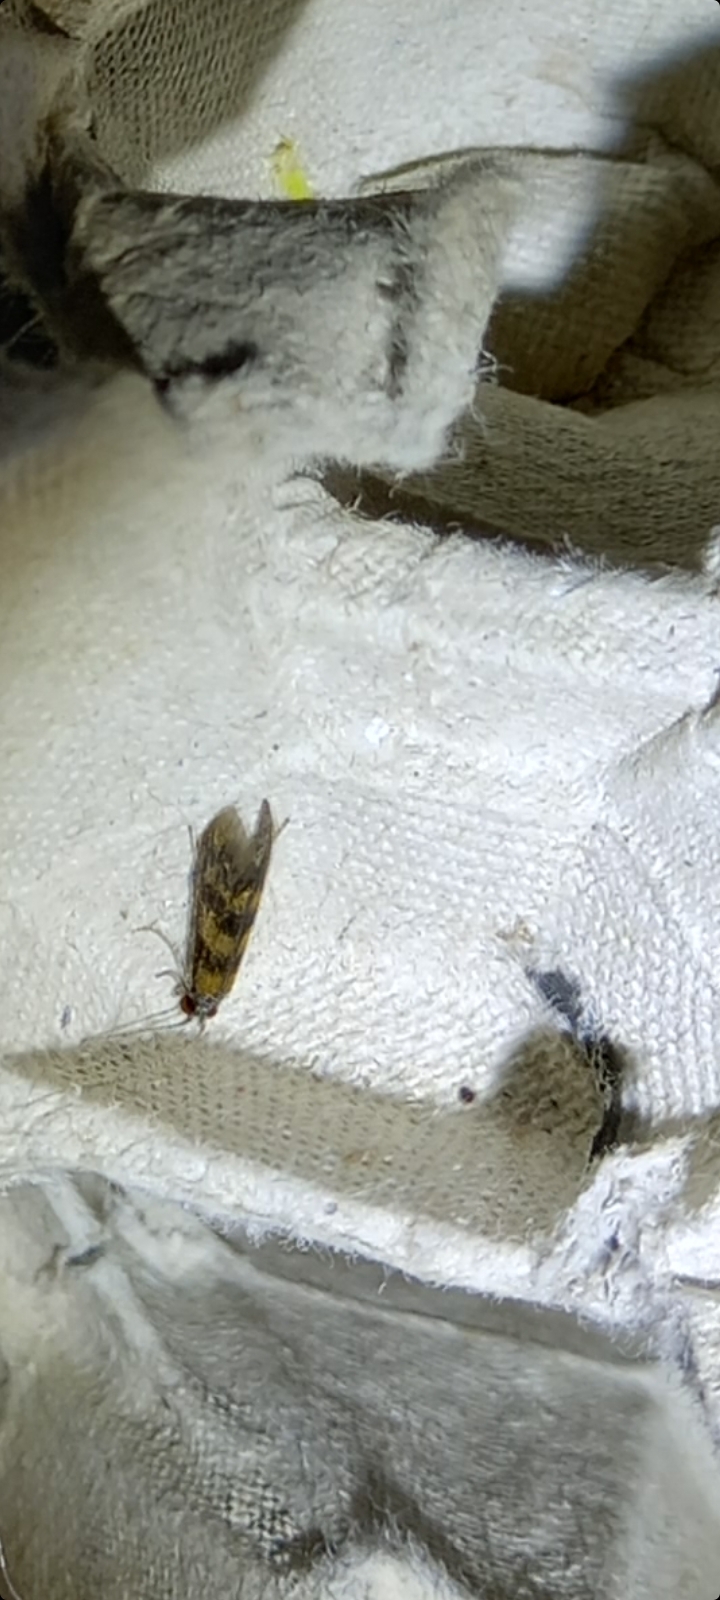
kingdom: Animalia
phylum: Arthropoda
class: Insecta
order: Trichoptera
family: Leptoceridae
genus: Mystacides
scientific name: Mystacides longicornis
